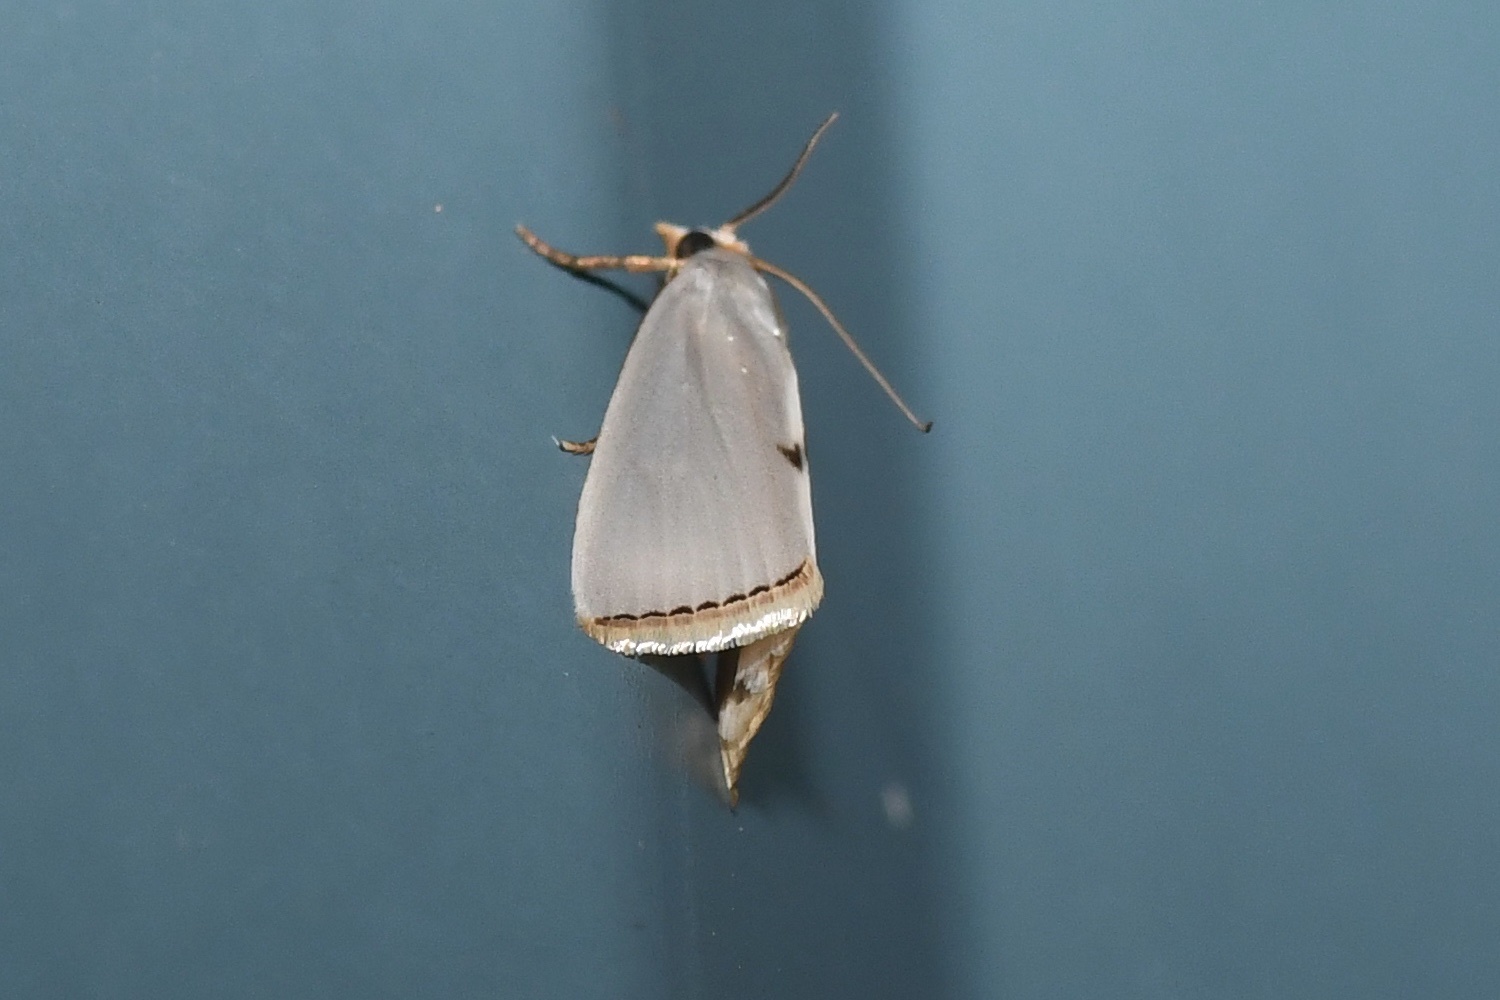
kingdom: Animalia
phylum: Arthropoda
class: Insecta
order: Lepidoptera
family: Crambidae
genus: Argyria
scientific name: Argyria nivalis
